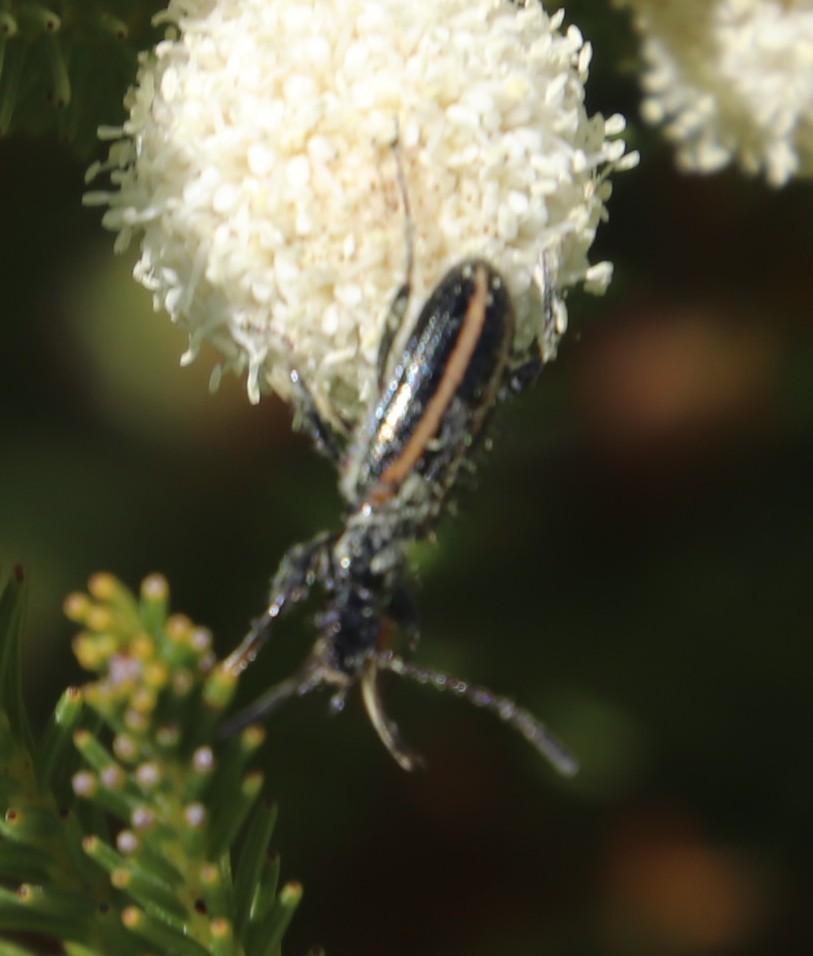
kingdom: Plantae
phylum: Tracheophyta
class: Magnoliopsida
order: Bruniales
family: Bruniaceae
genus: Berzelia
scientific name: Berzelia lanuginosa
